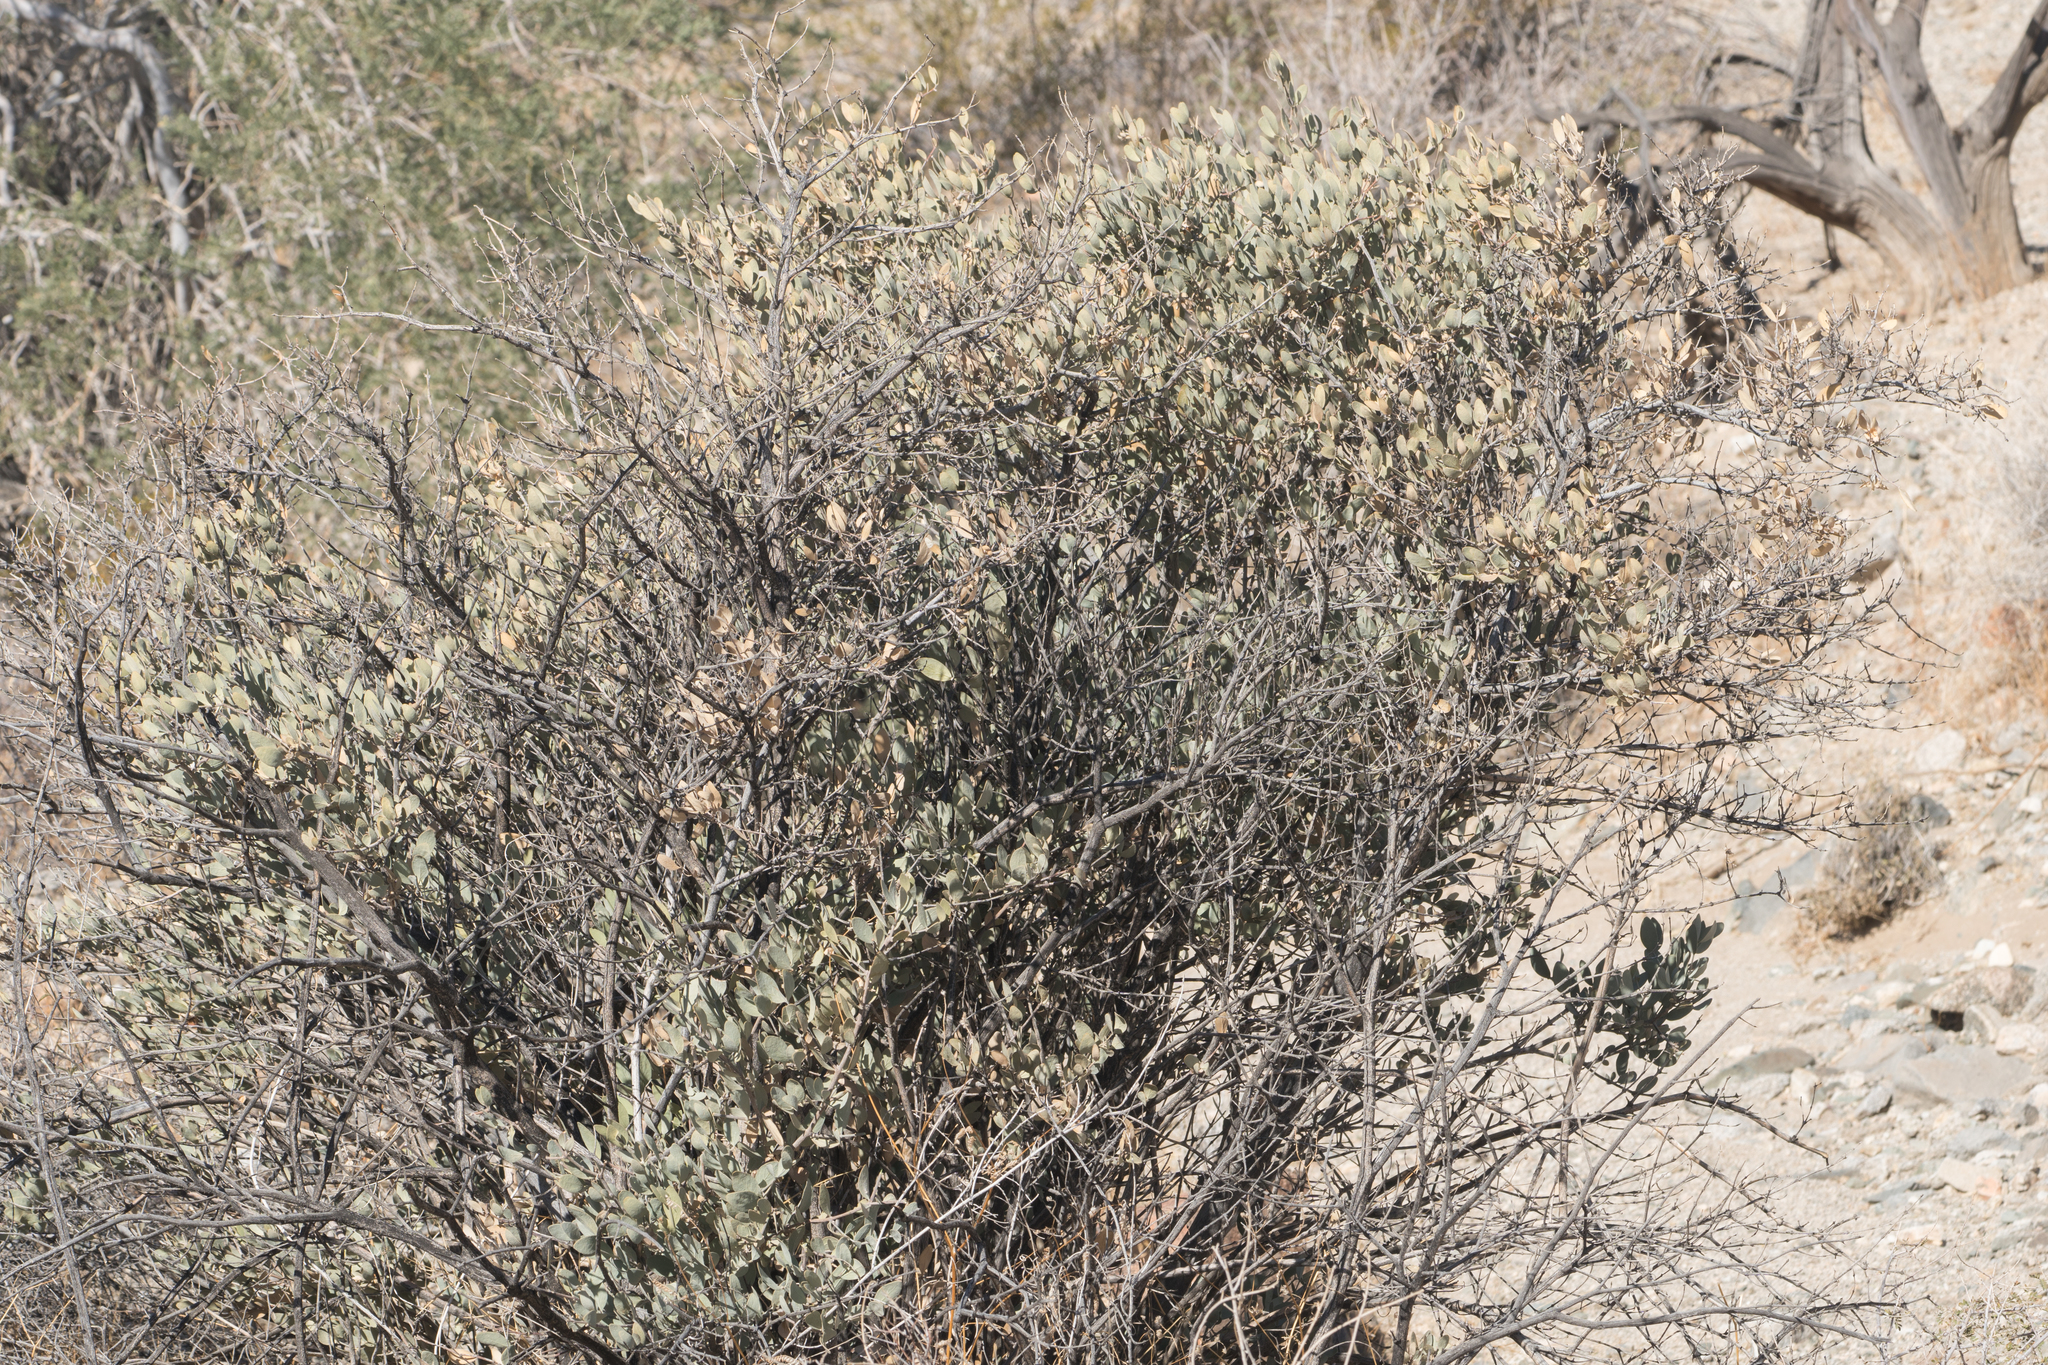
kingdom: Plantae
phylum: Tracheophyta
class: Magnoliopsida
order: Caryophyllales
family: Simmondsiaceae
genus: Simmondsia
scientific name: Simmondsia chinensis
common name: Jojoba
